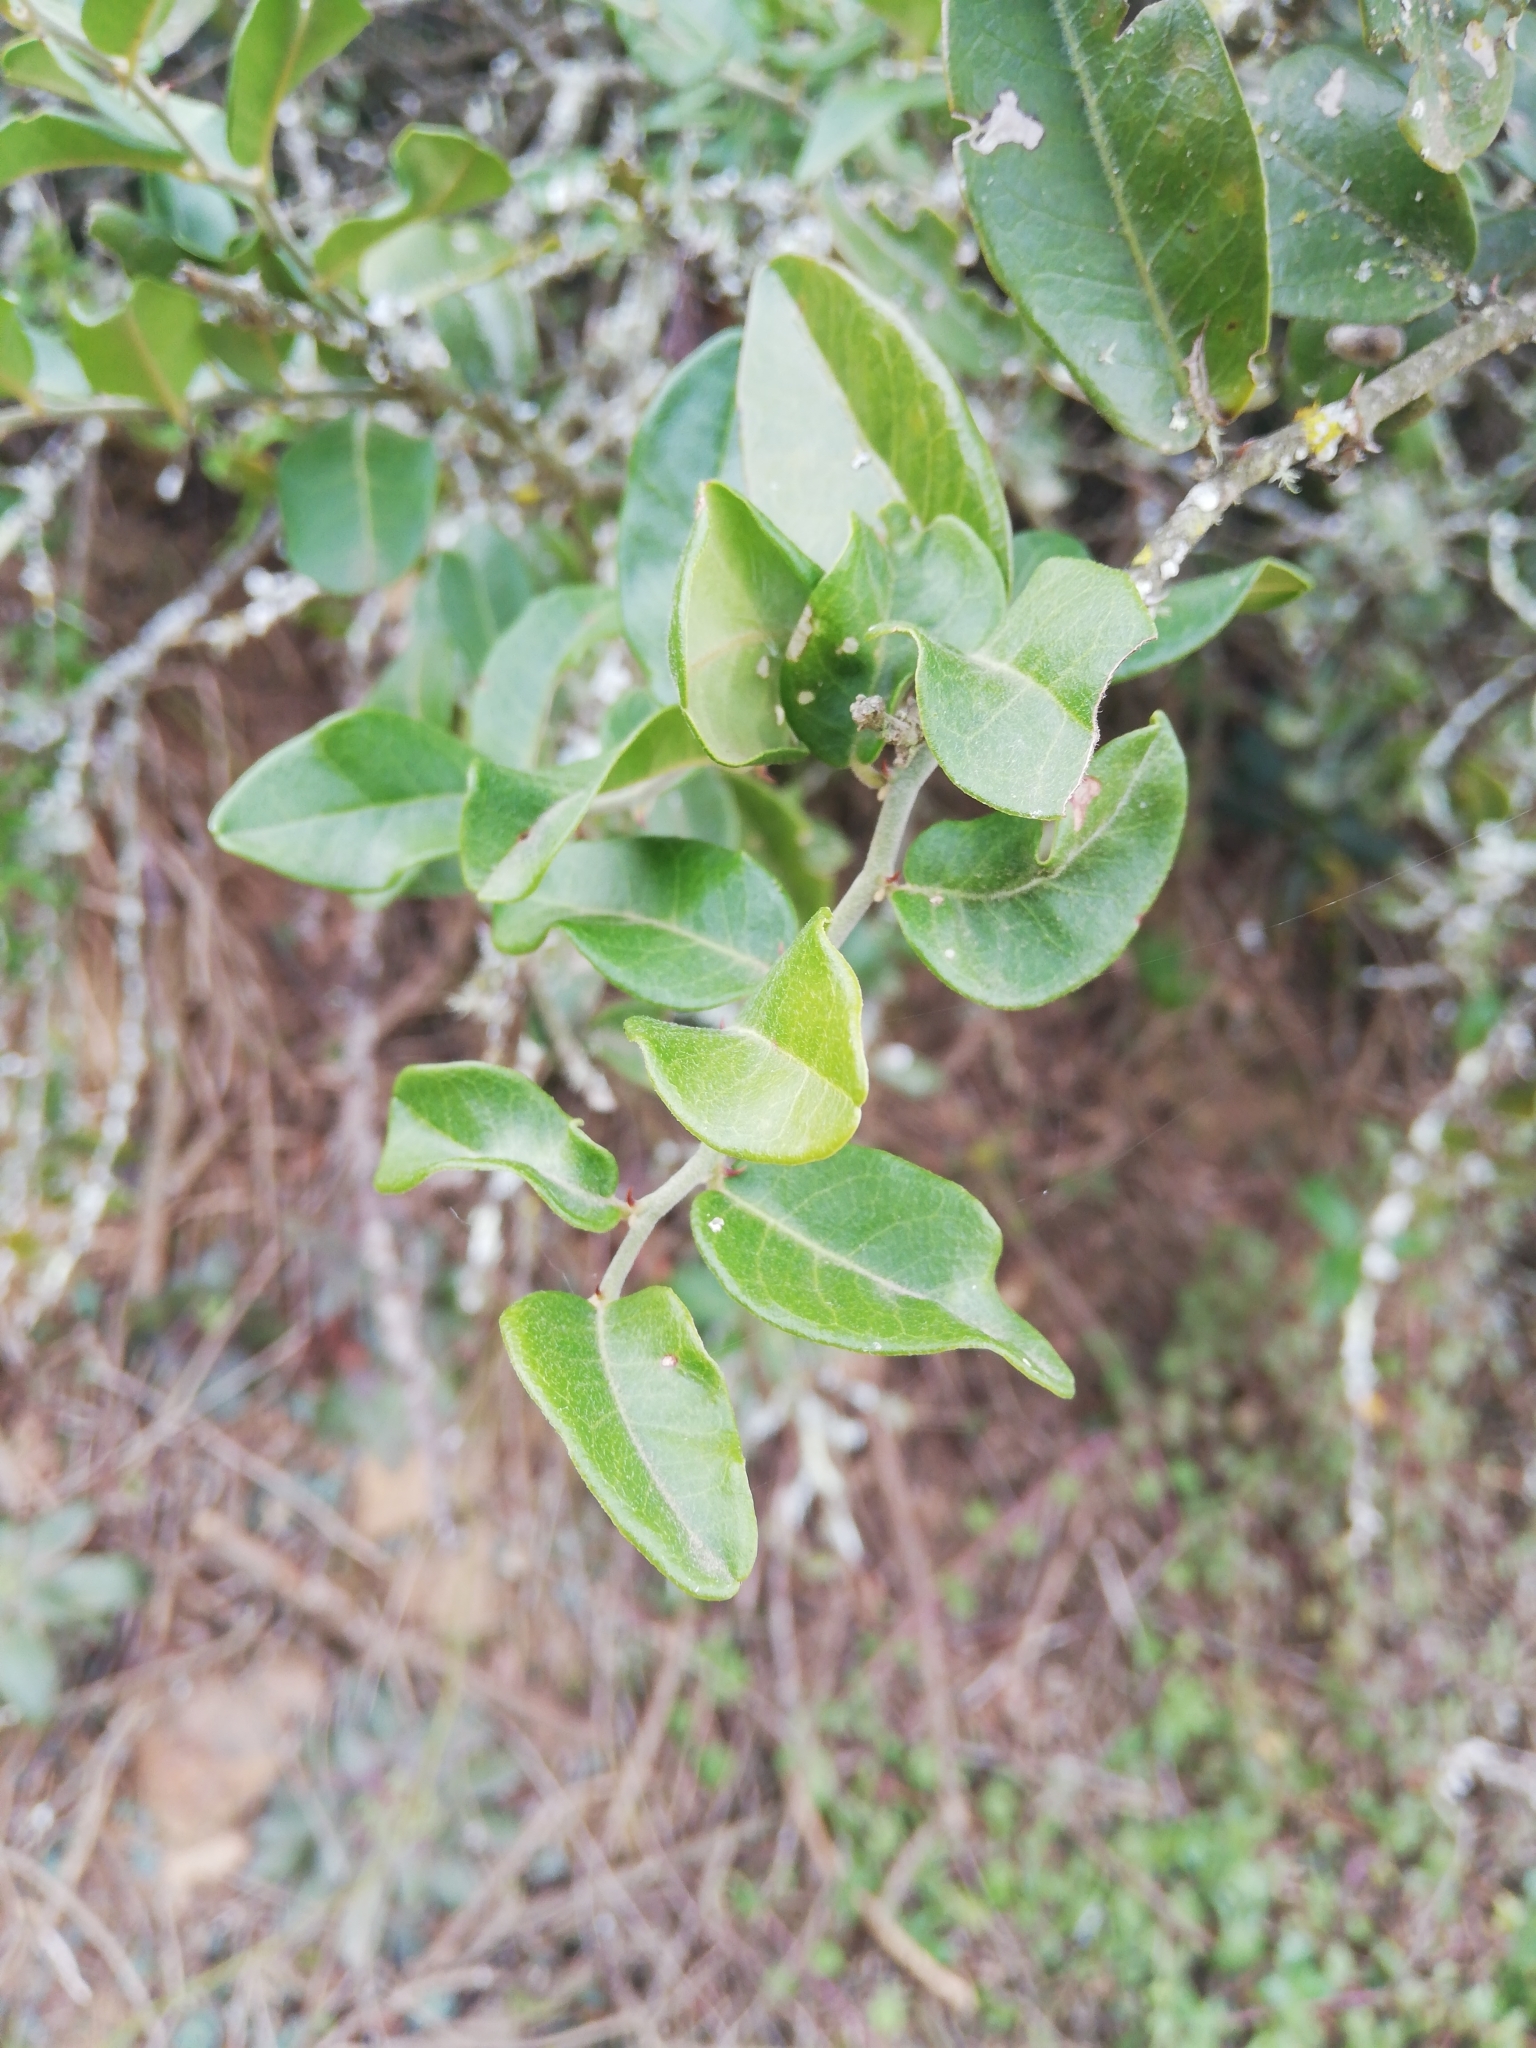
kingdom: Plantae
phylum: Tracheophyta
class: Magnoliopsida
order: Brassicales
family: Capparaceae
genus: Capparis
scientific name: Capparis sepiaria
